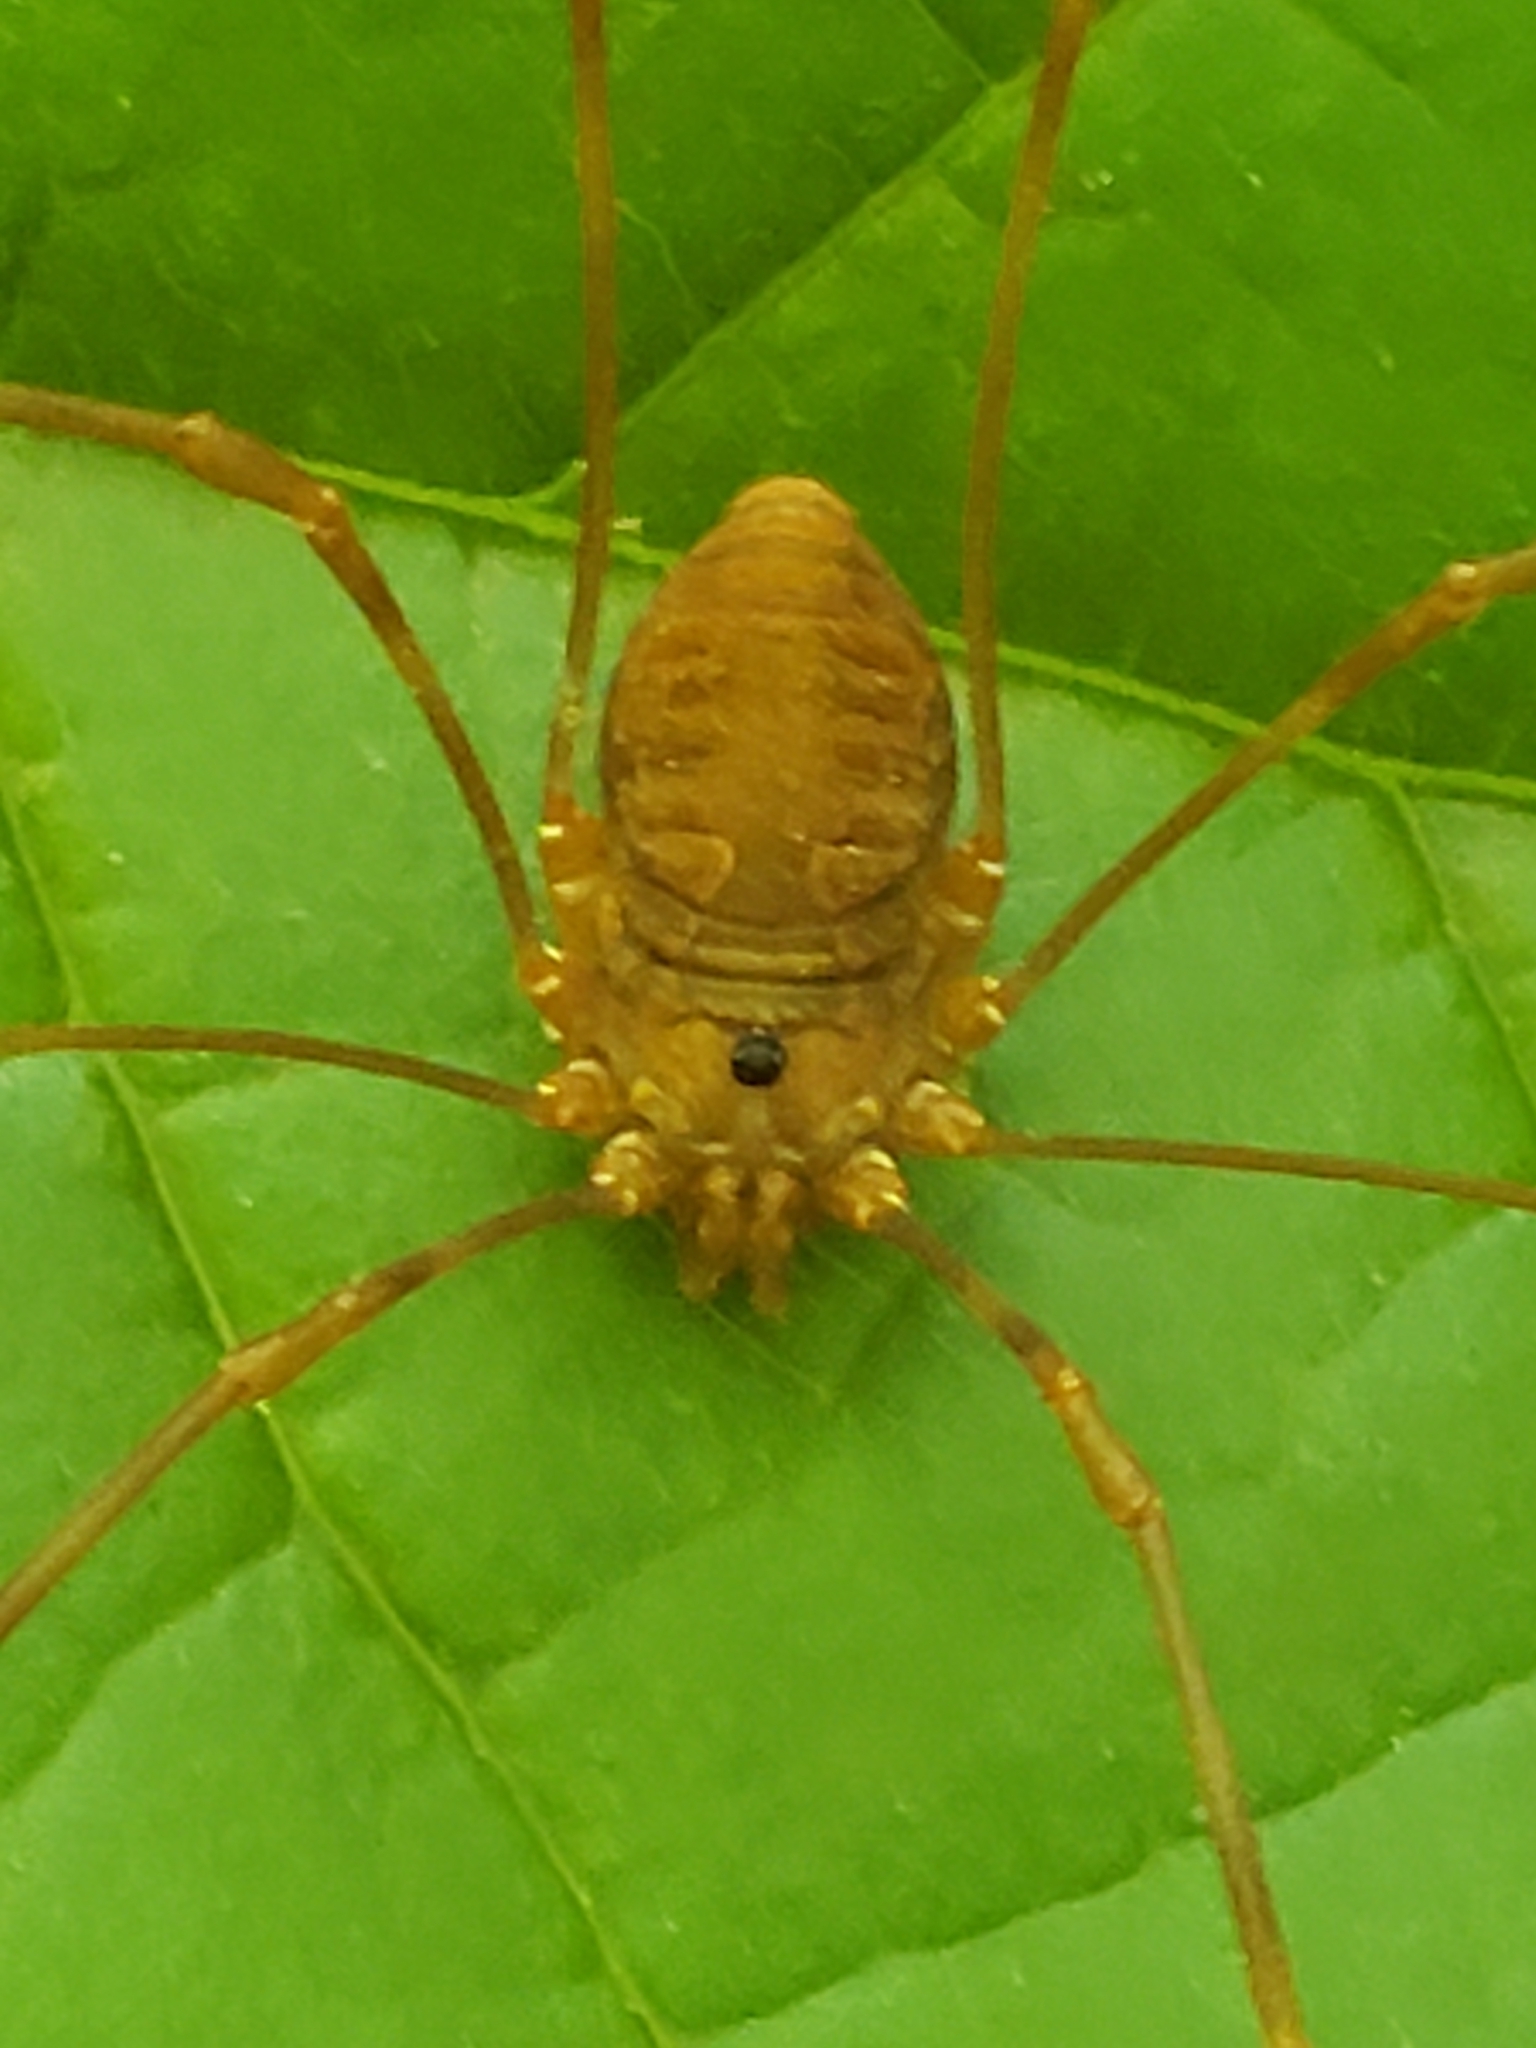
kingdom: Animalia
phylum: Arthropoda
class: Arachnida
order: Opiliones
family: Sclerosomatidae
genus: Leiobunum
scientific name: Leiobunum ventricosum
